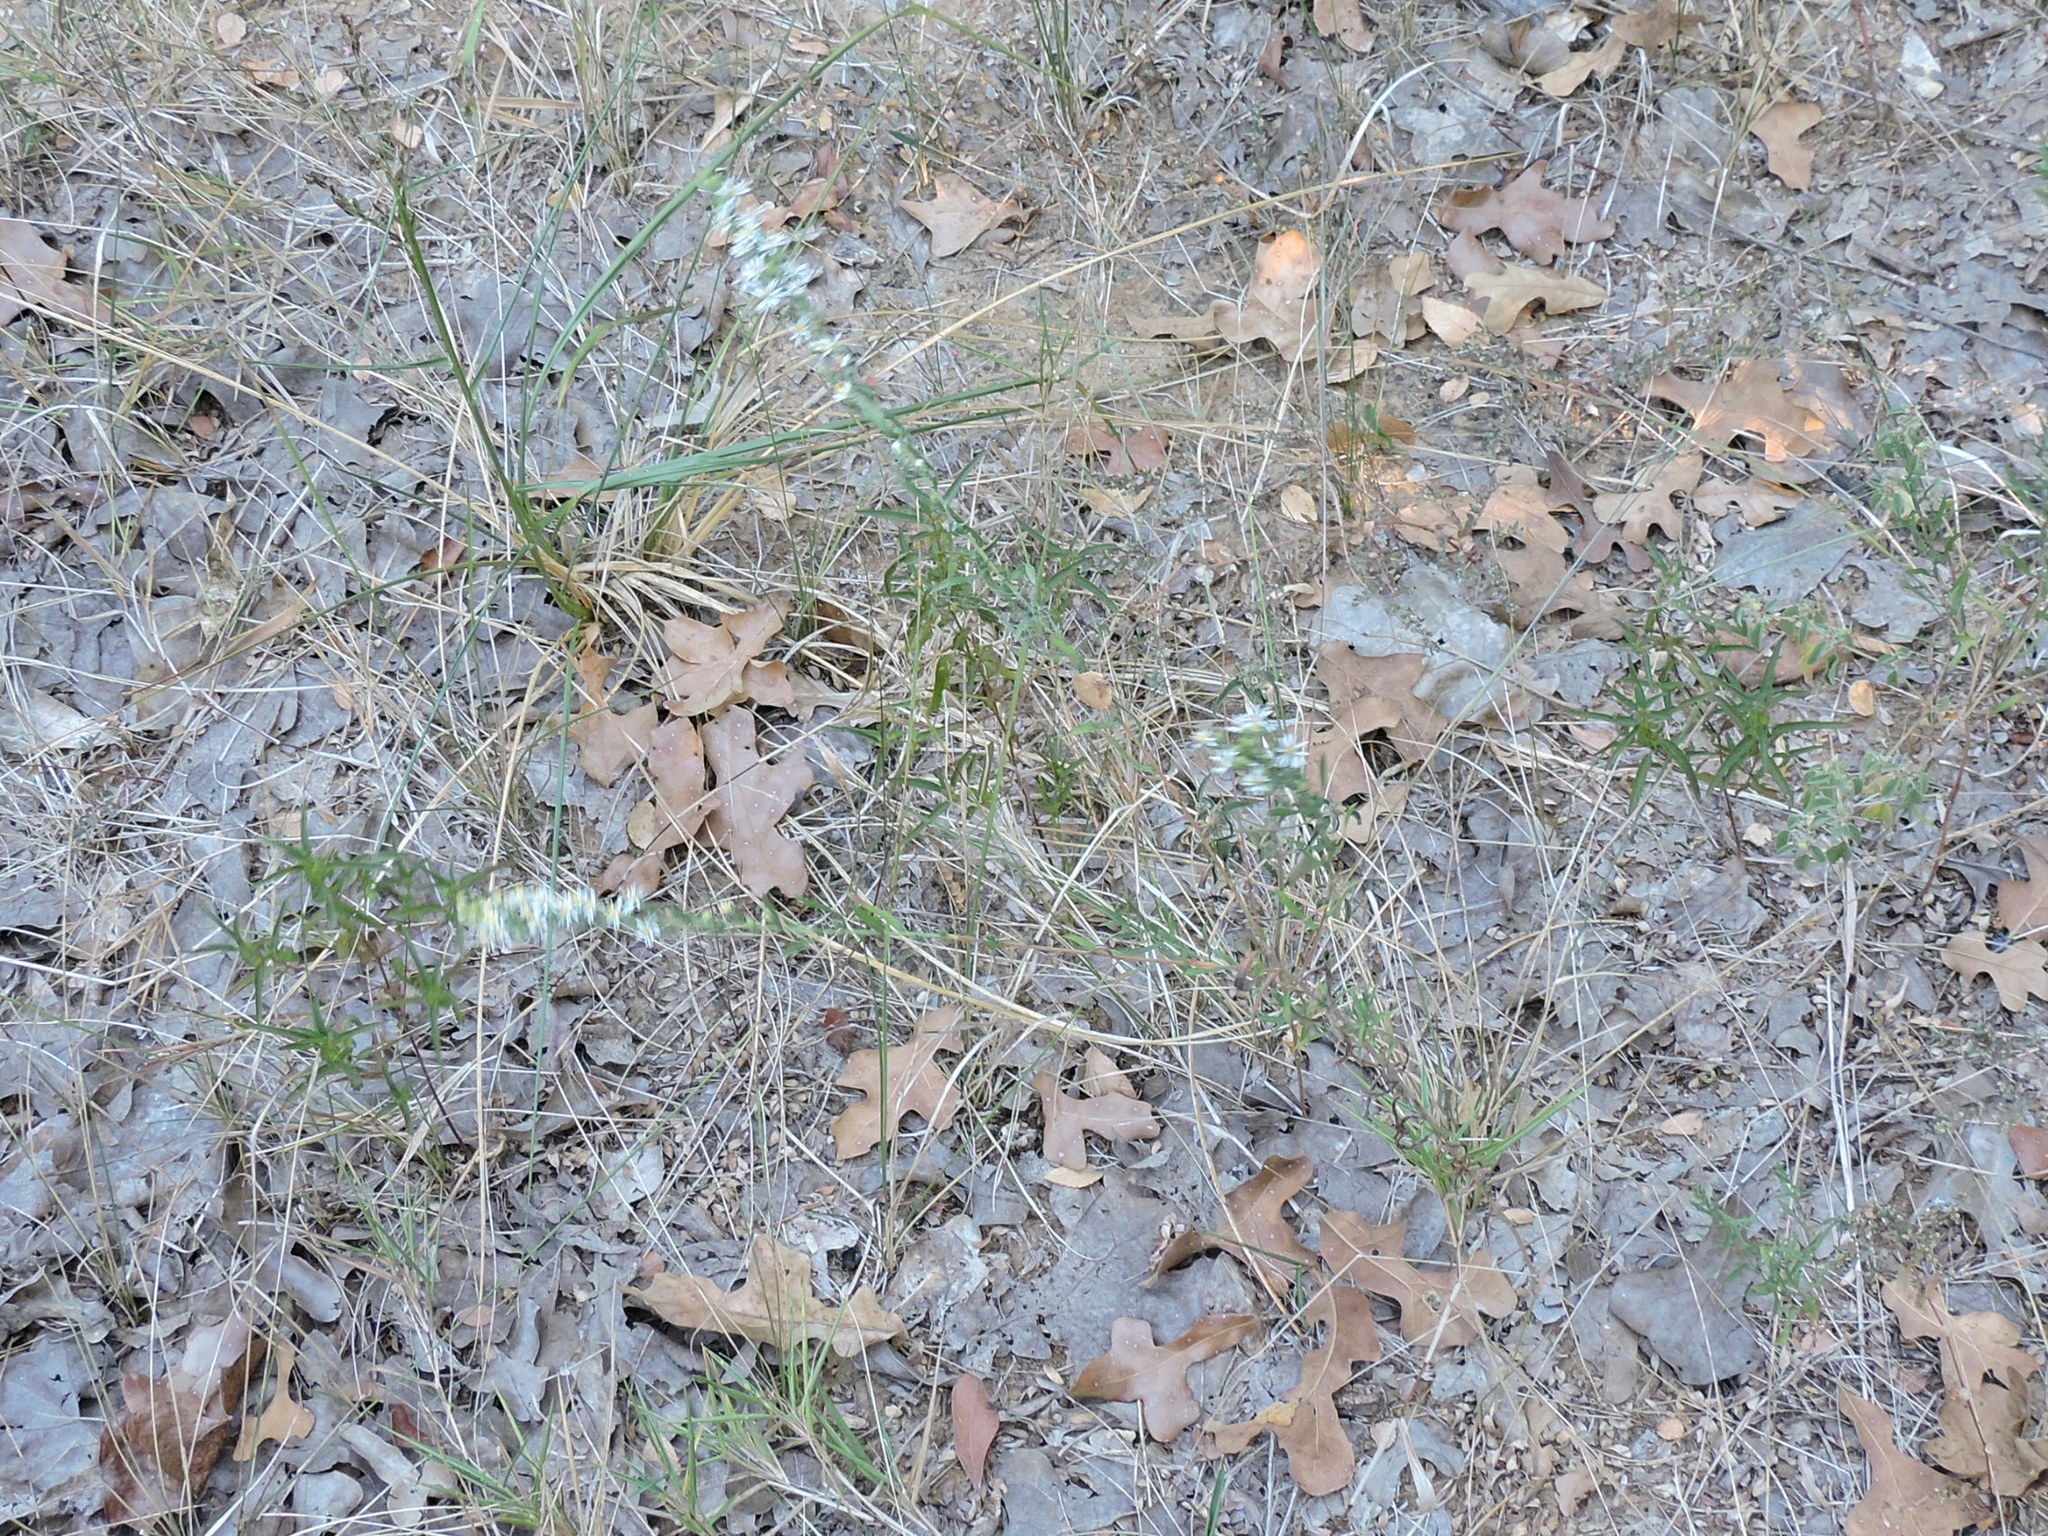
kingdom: Plantae
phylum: Tracheophyta
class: Magnoliopsida
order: Asterales
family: Asteraceae
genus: Symphyotrichum
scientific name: Symphyotrichum ericoides
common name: Heath aster
